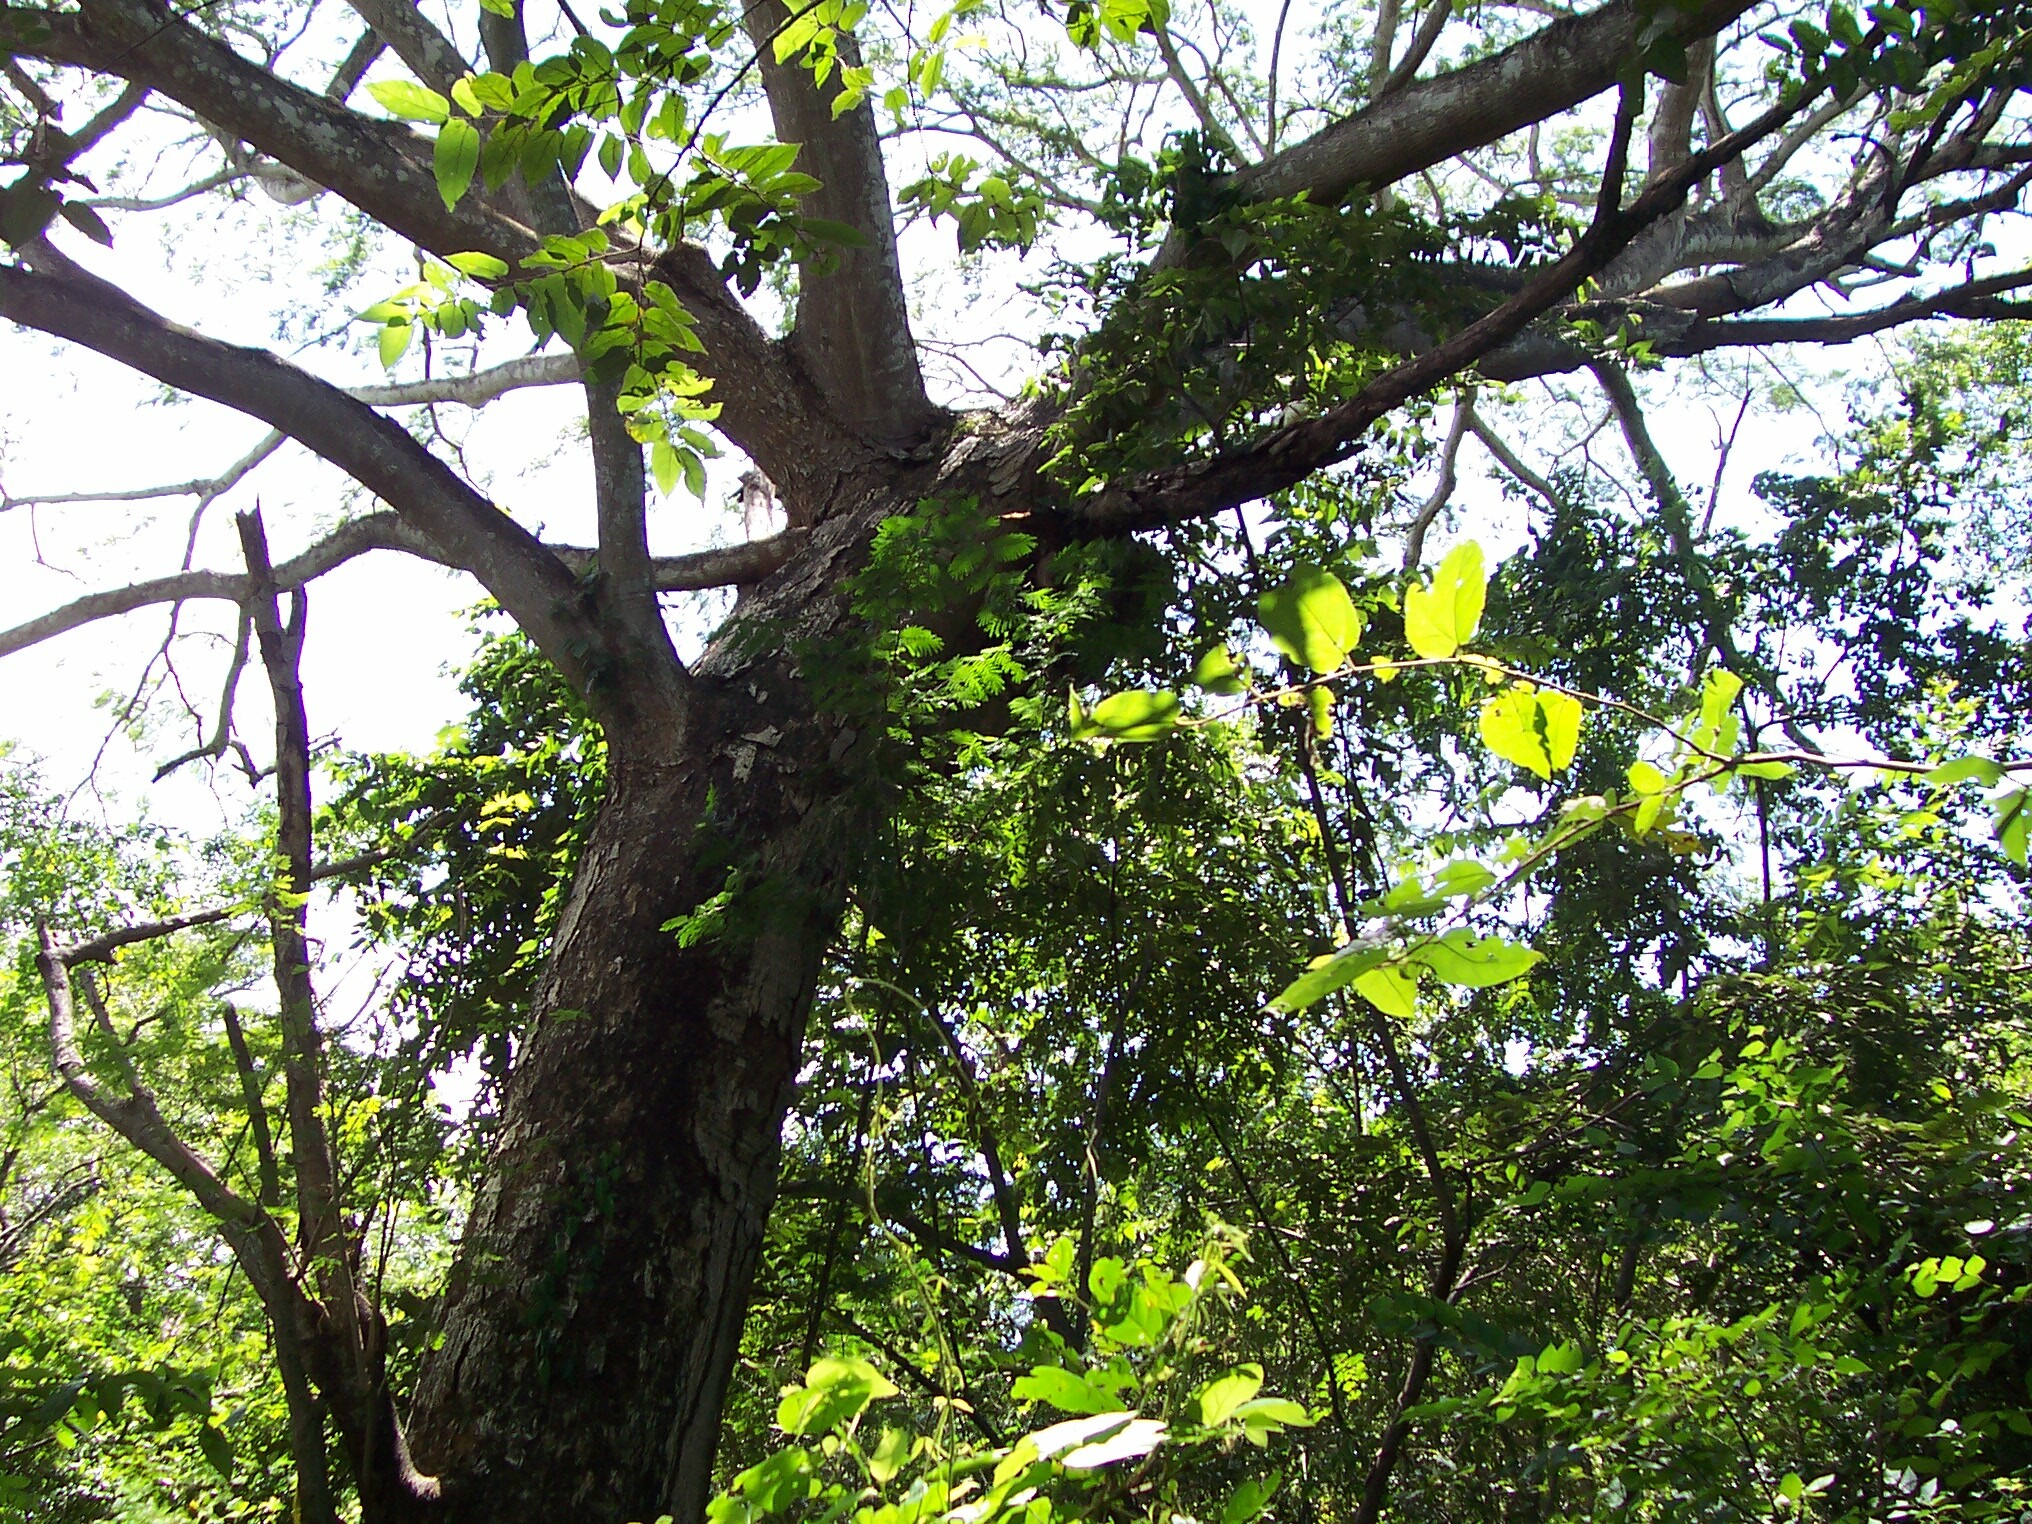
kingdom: Plantae
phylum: Tracheophyta
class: Magnoliopsida
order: Fabales
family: Fabaceae
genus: Enterolobium
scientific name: Enterolobium cyclocarpum
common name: Ear tree
